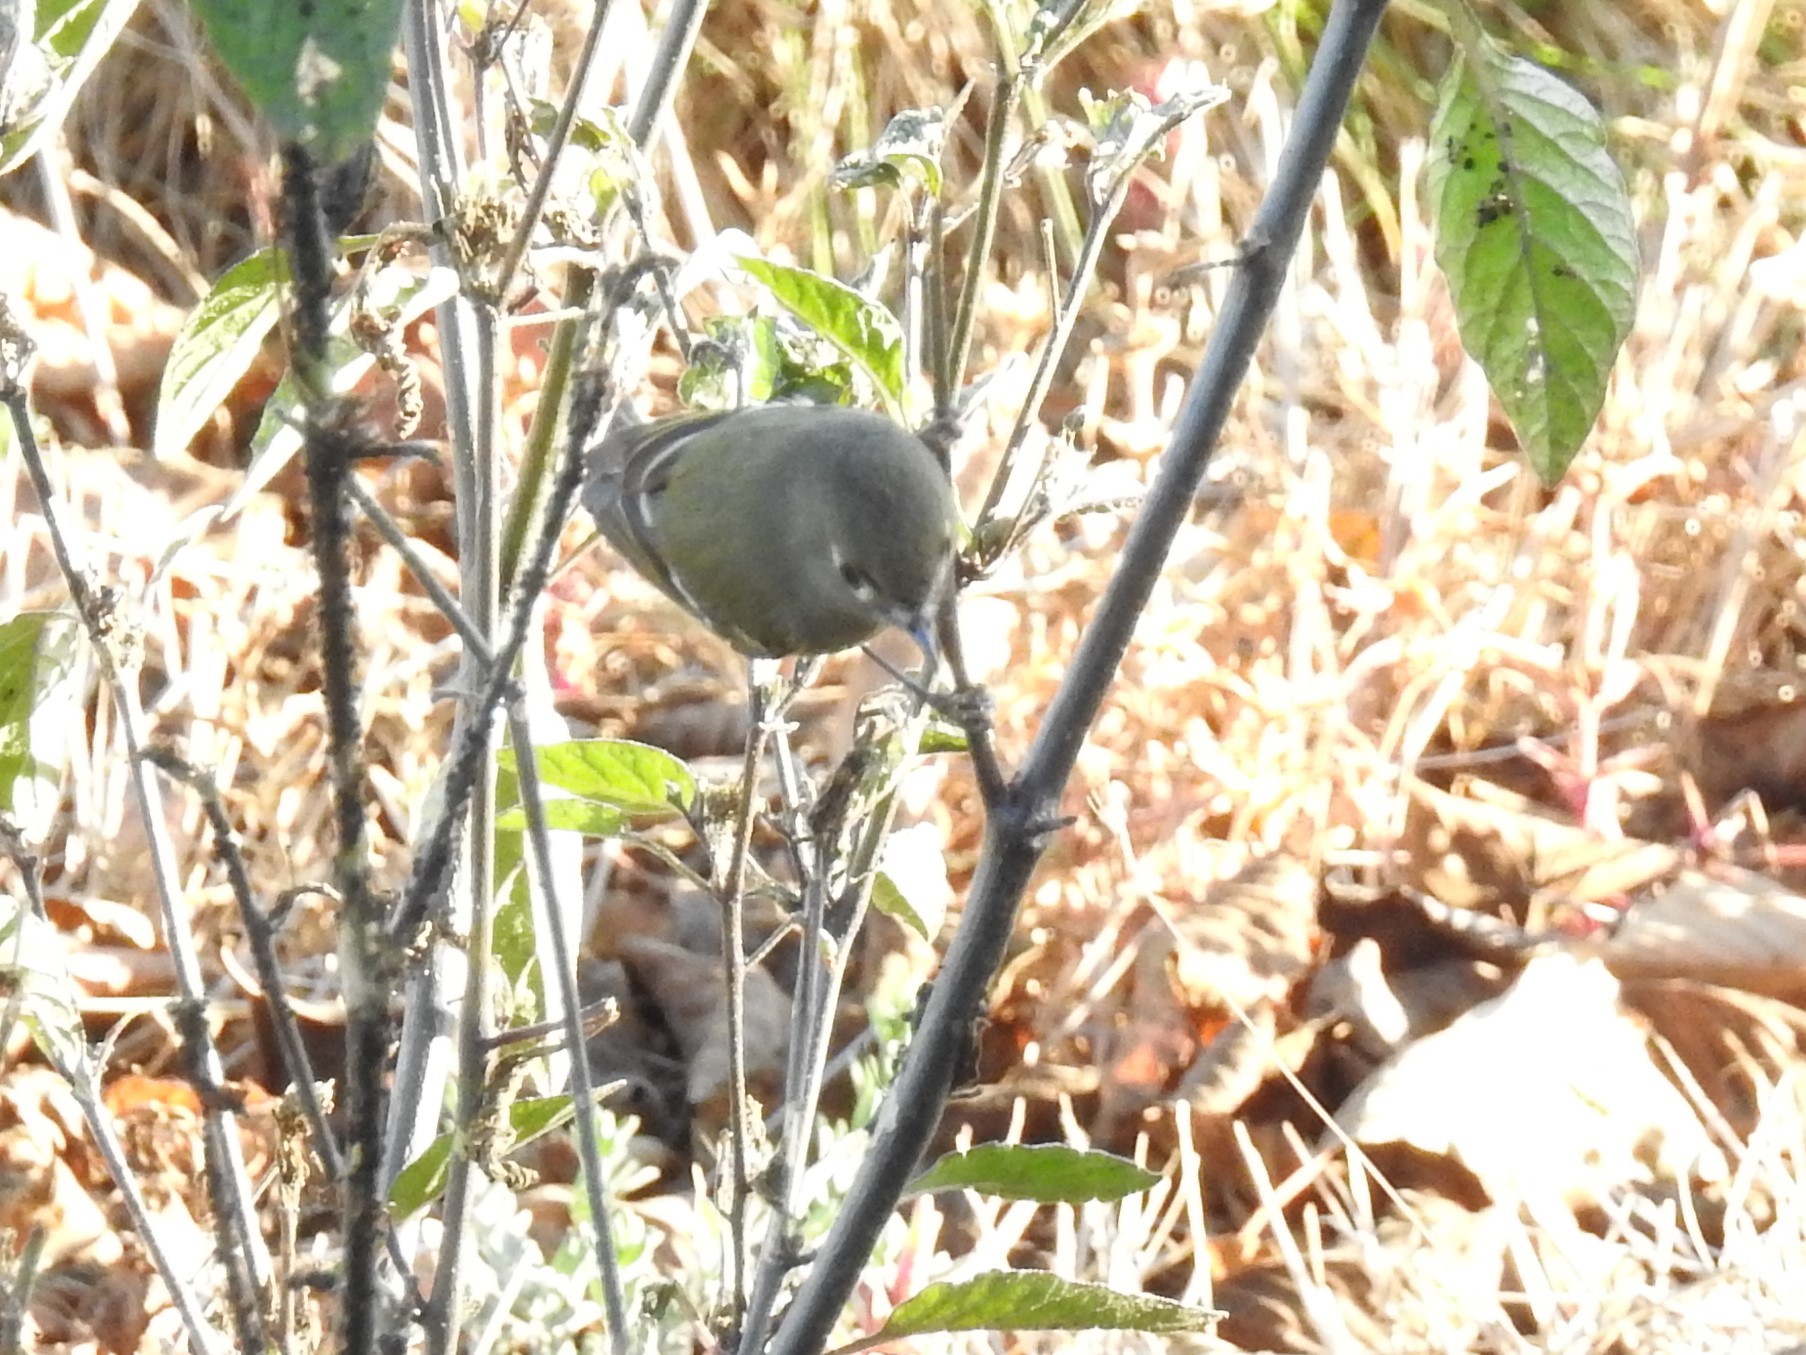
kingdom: Animalia
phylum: Chordata
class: Aves
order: Passeriformes
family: Regulidae
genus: Regulus
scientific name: Regulus calendula
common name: Ruby-crowned kinglet
